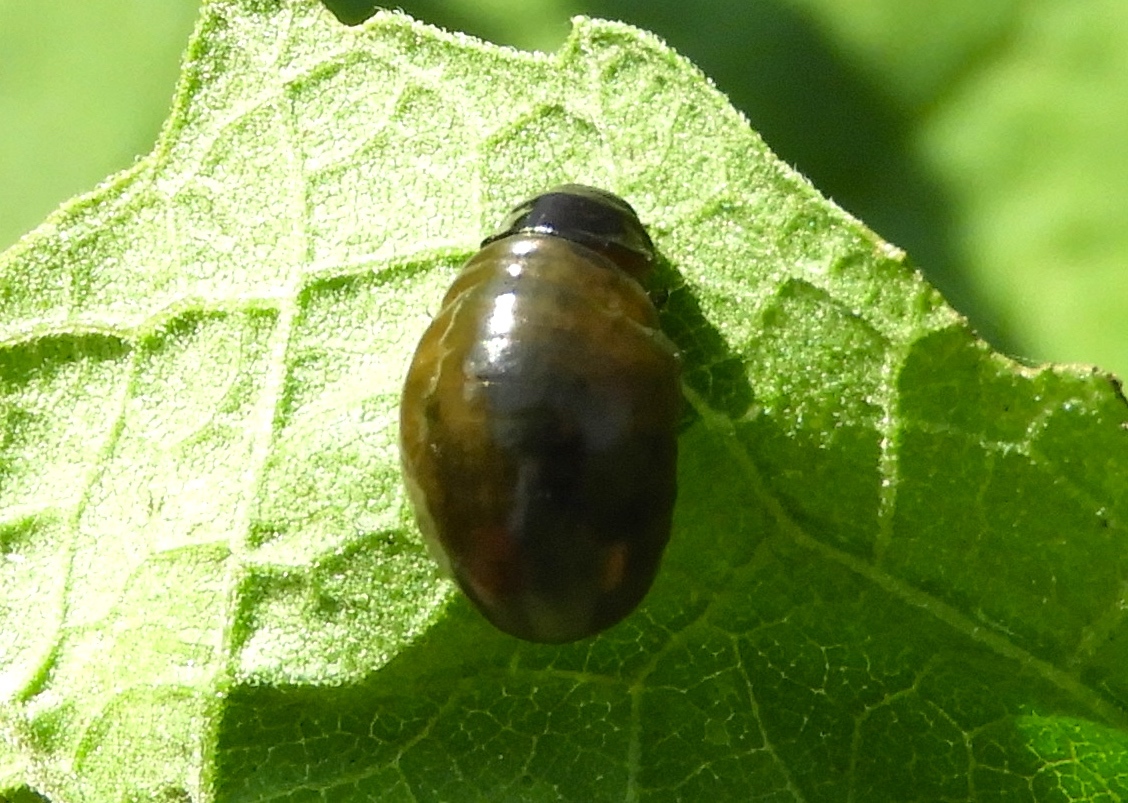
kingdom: Animalia
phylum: Arthropoda
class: Insecta
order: Coleoptera
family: Chrysomelinae
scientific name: Chrysomelinae
